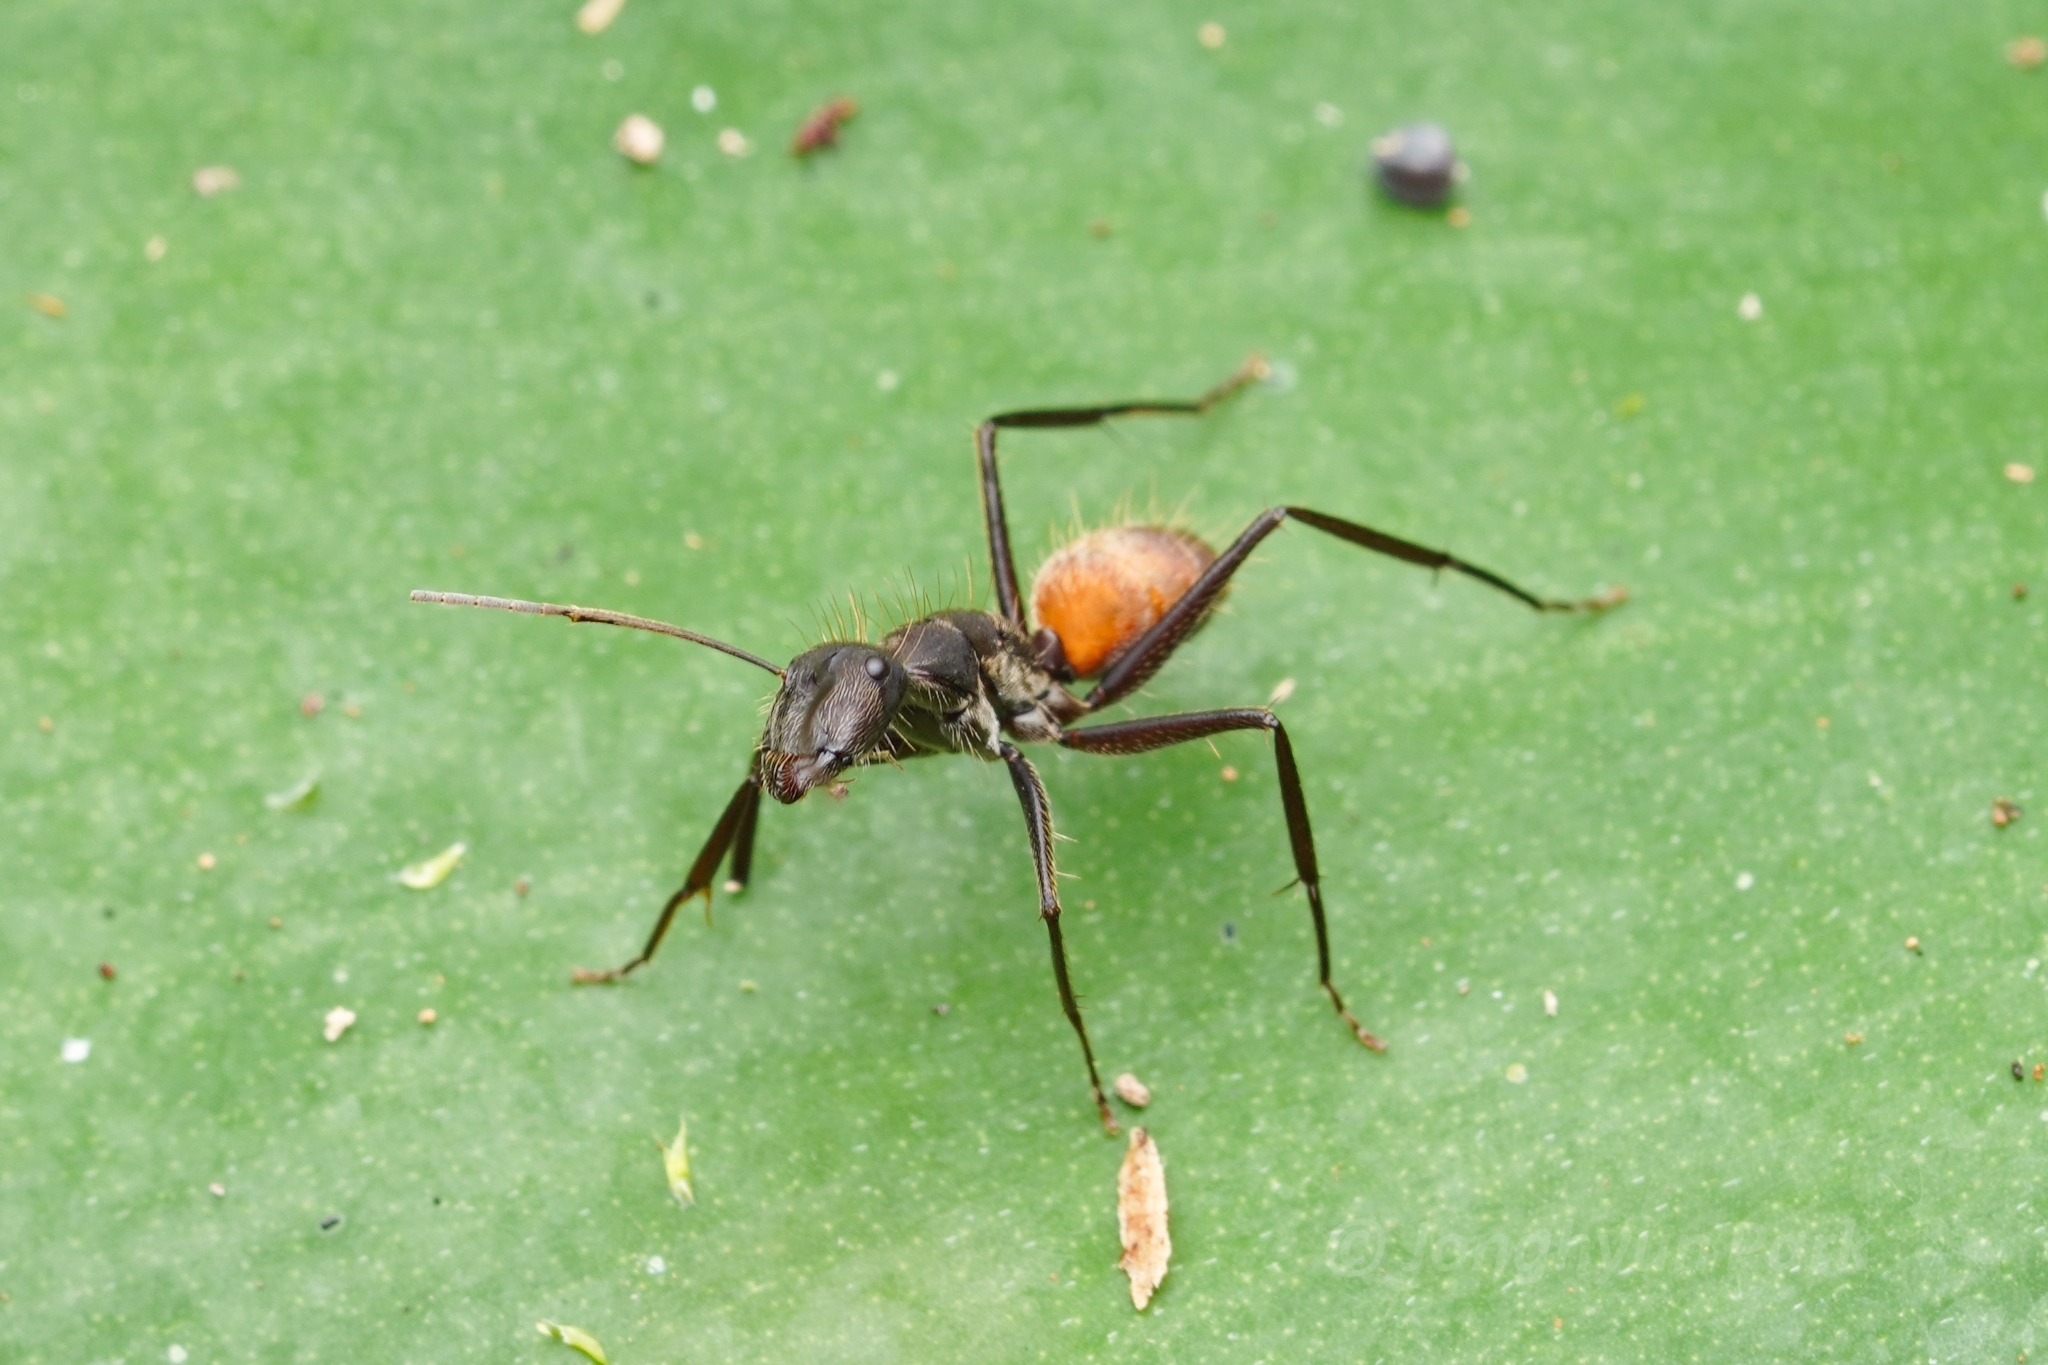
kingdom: Animalia
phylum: Arthropoda
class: Insecta
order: Hymenoptera
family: Formicidae
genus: Camponotus
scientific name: Camponotus rapax
